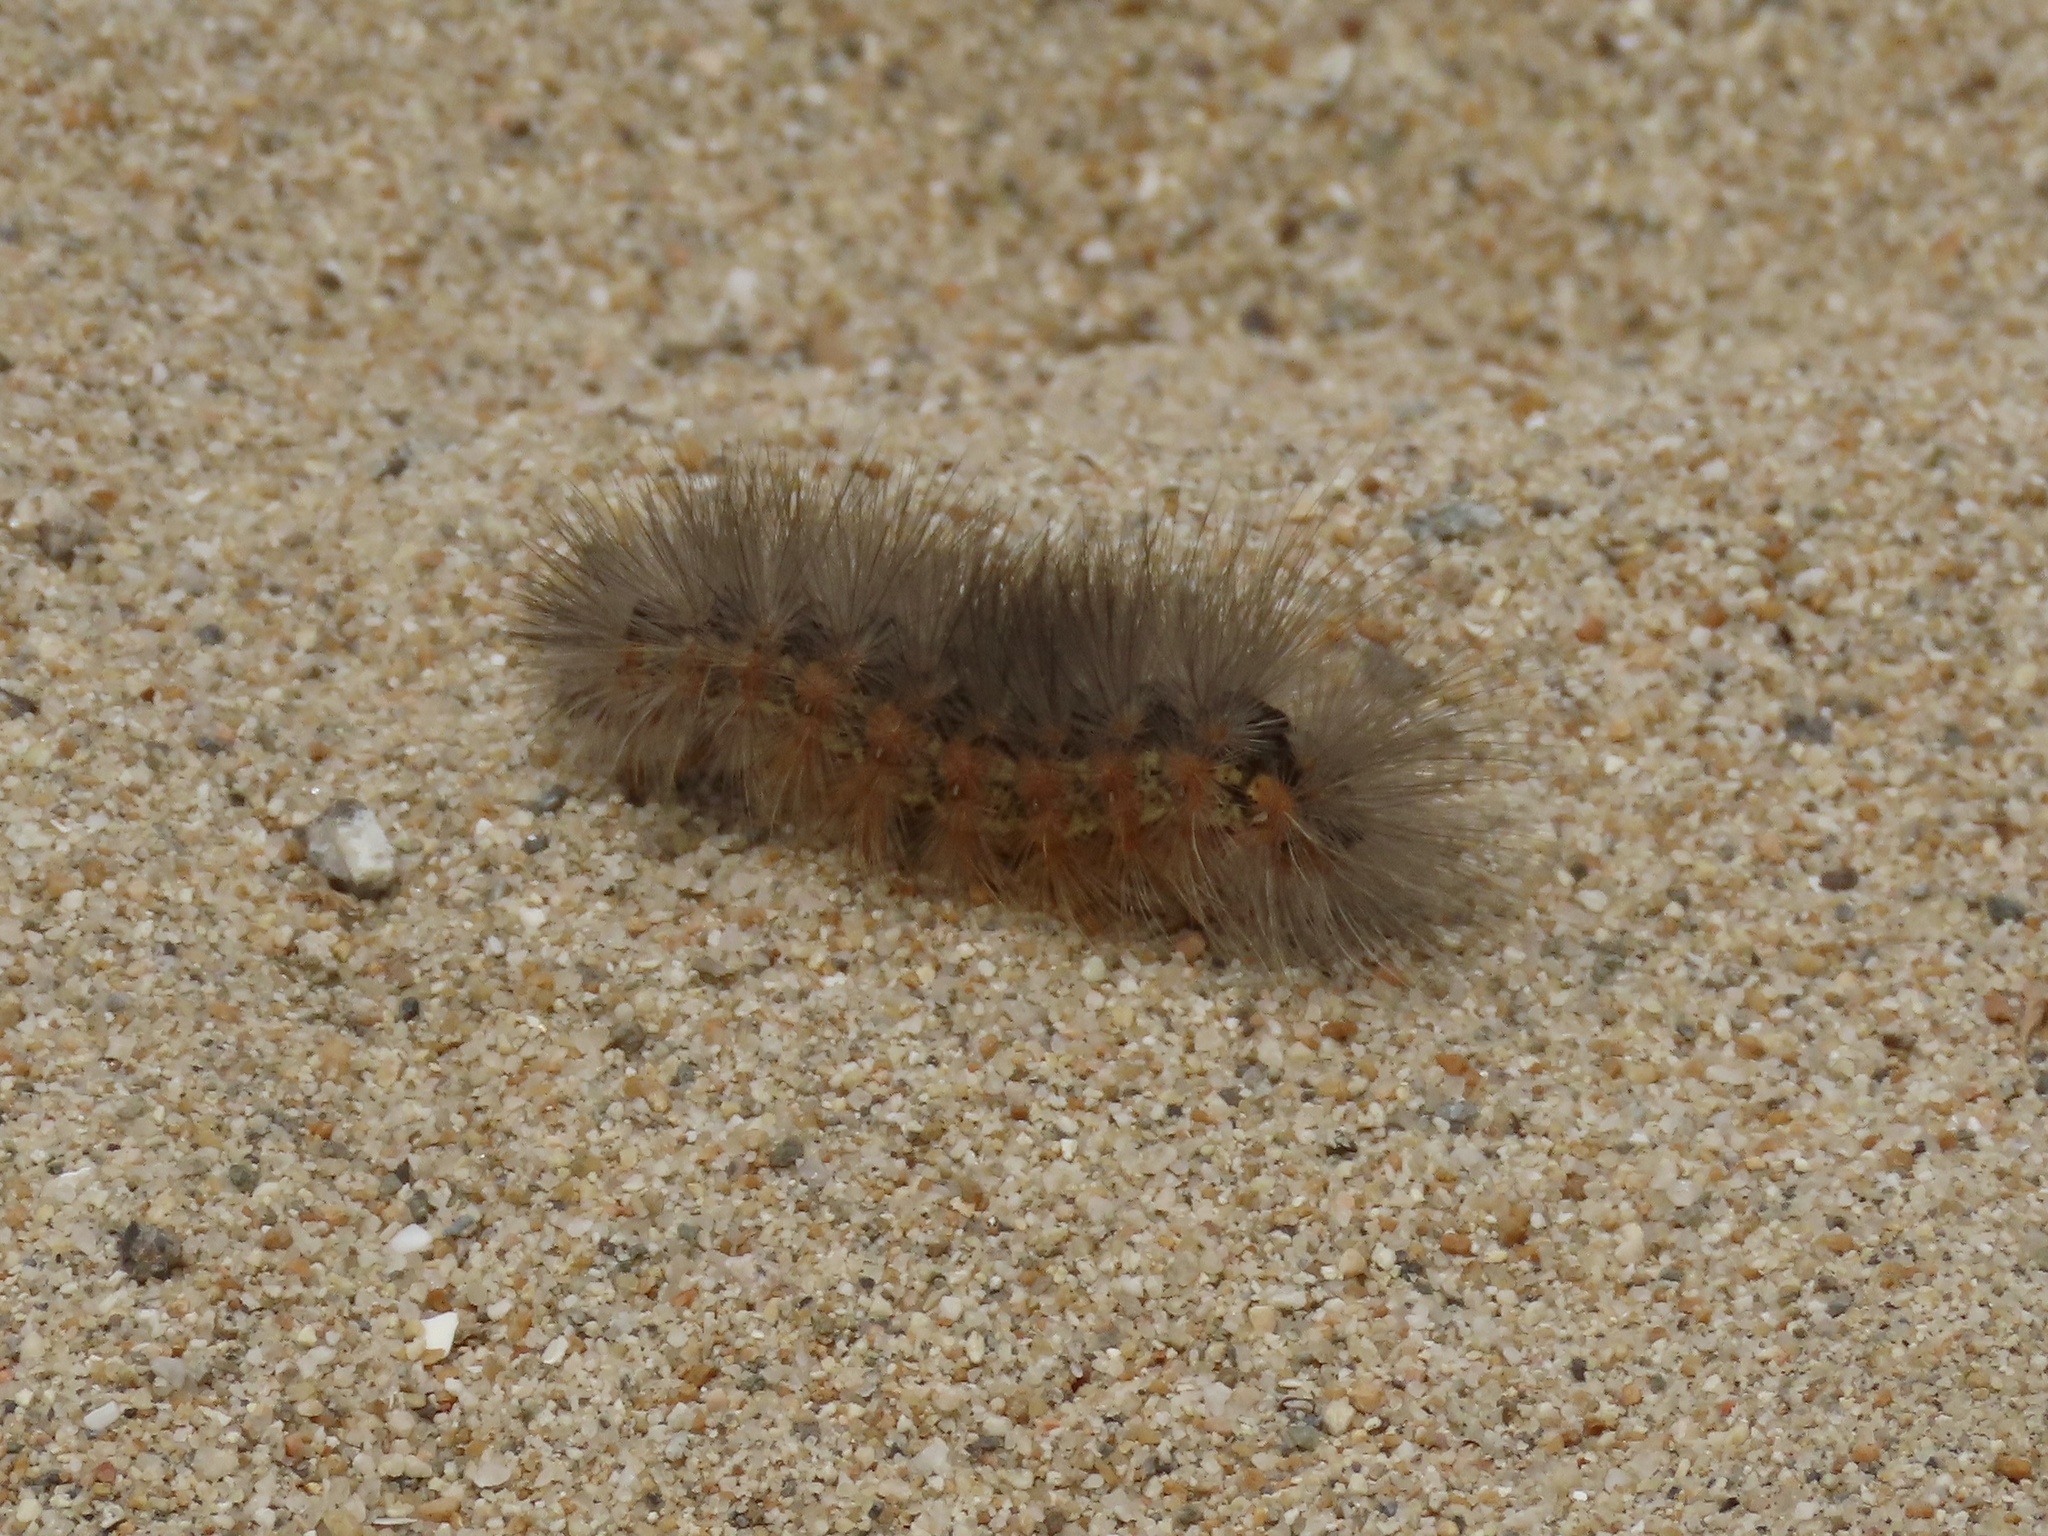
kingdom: Animalia
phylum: Arthropoda
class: Insecta
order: Lepidoptera
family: Erebidae
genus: Estigmene
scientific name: Estigmene acrea
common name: Salt marsh moth
